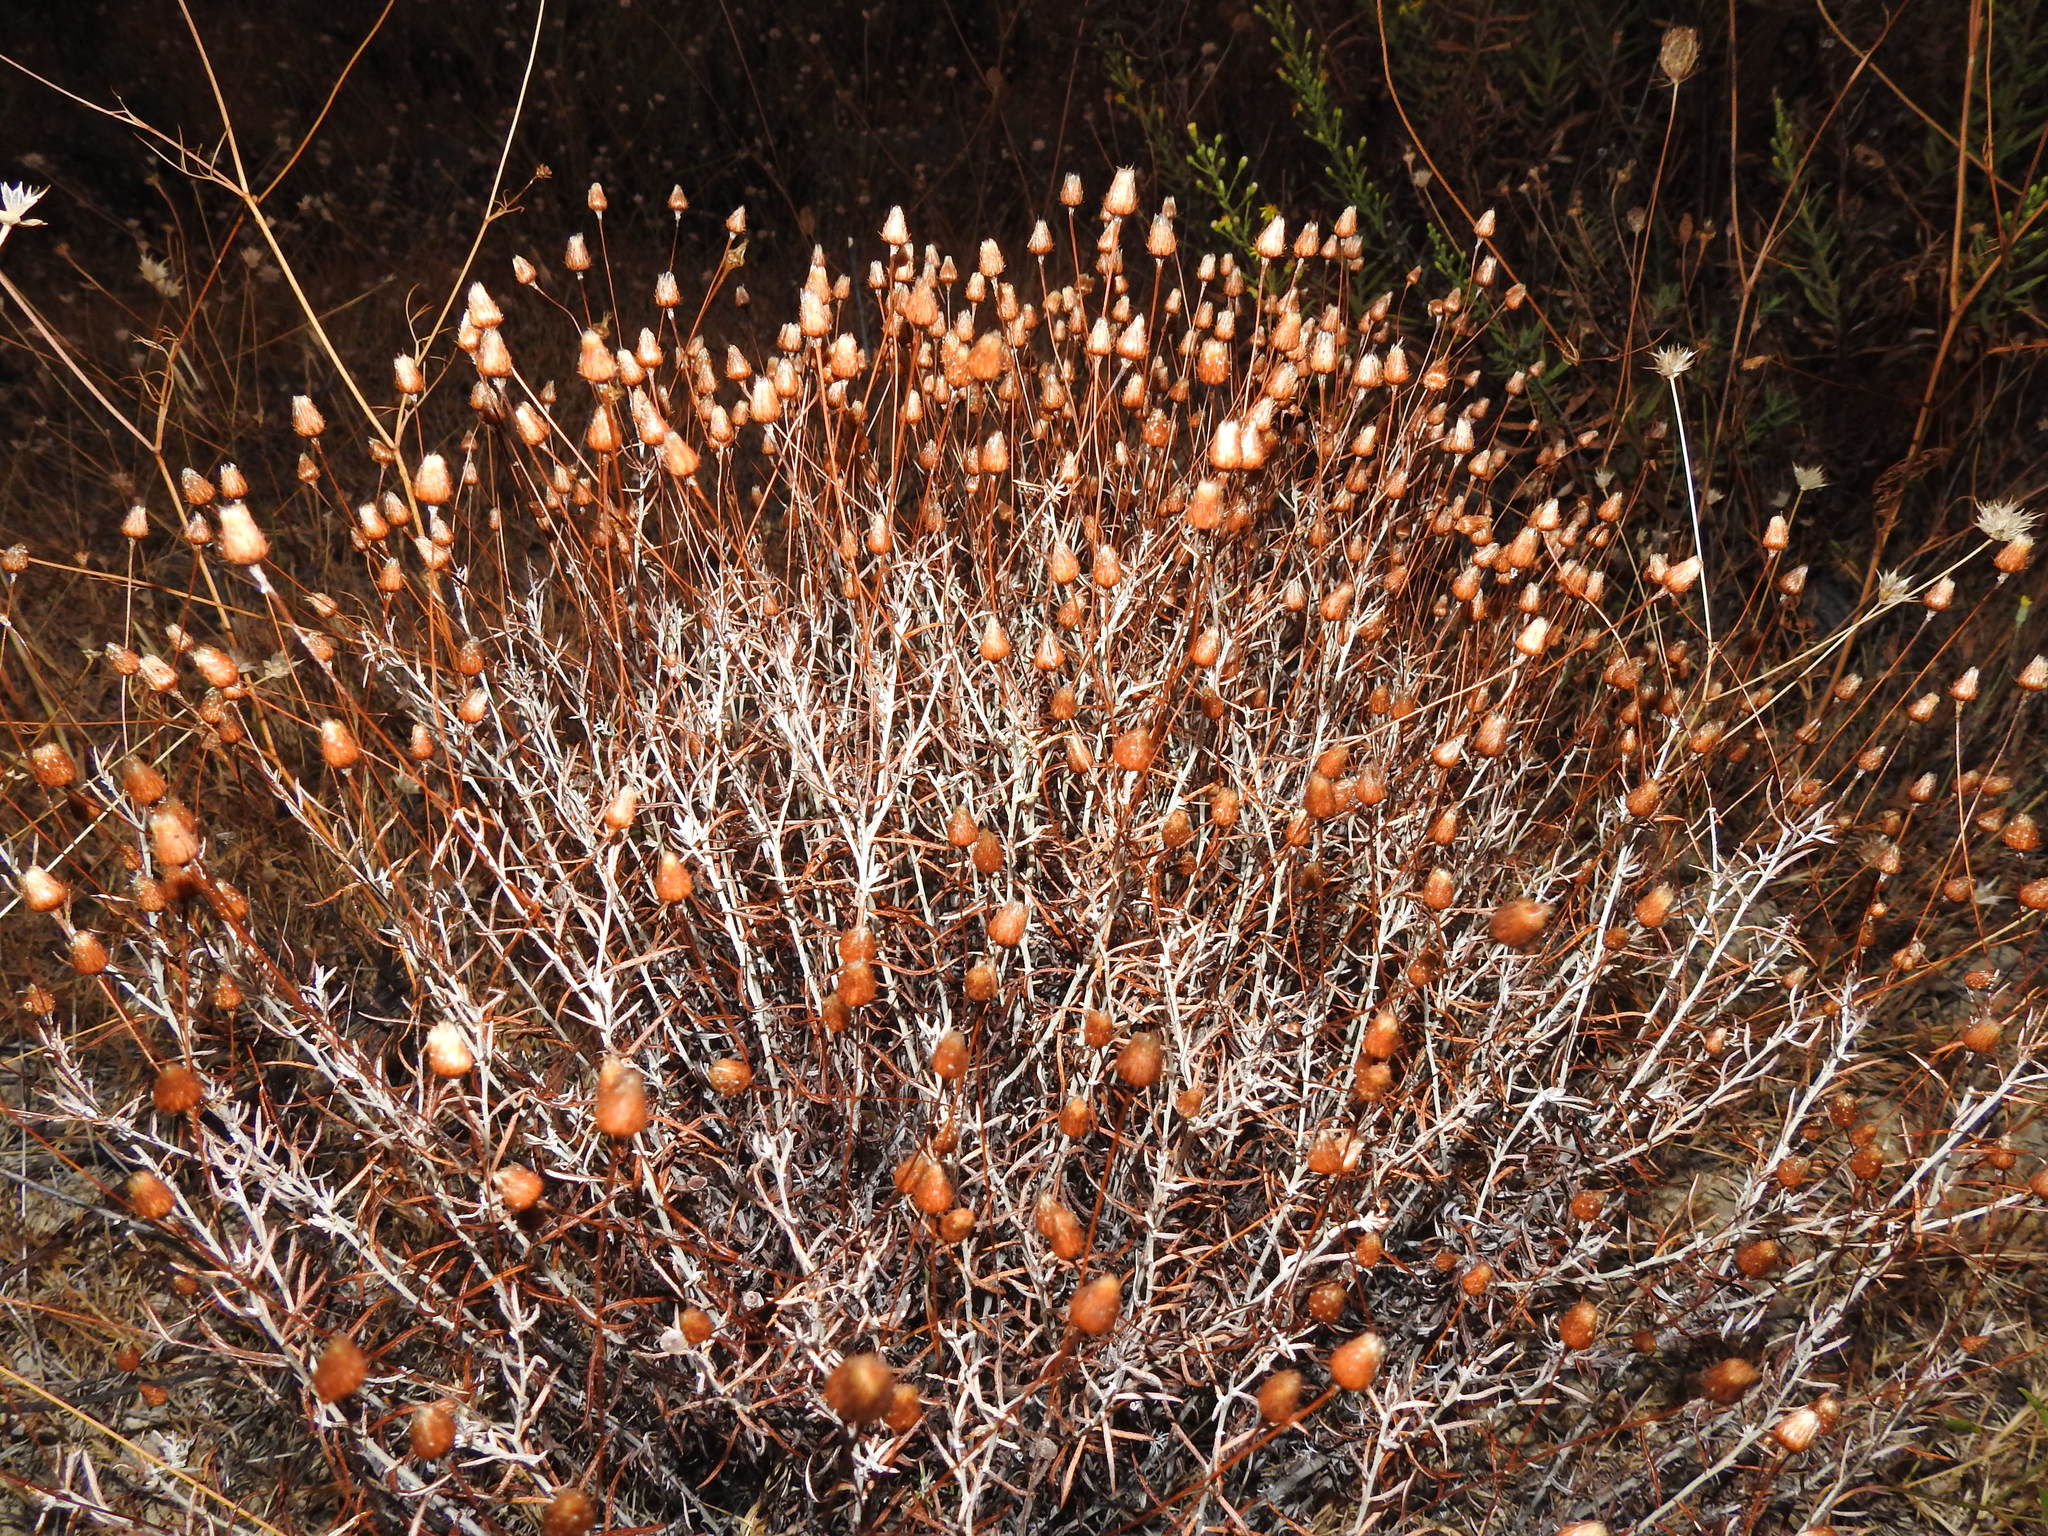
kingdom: Plantae
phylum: Tracheophyta
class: Magnoliopsida
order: Asterales
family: Asteraceae
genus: Phagnalon
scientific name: Phagnalon saxatile
